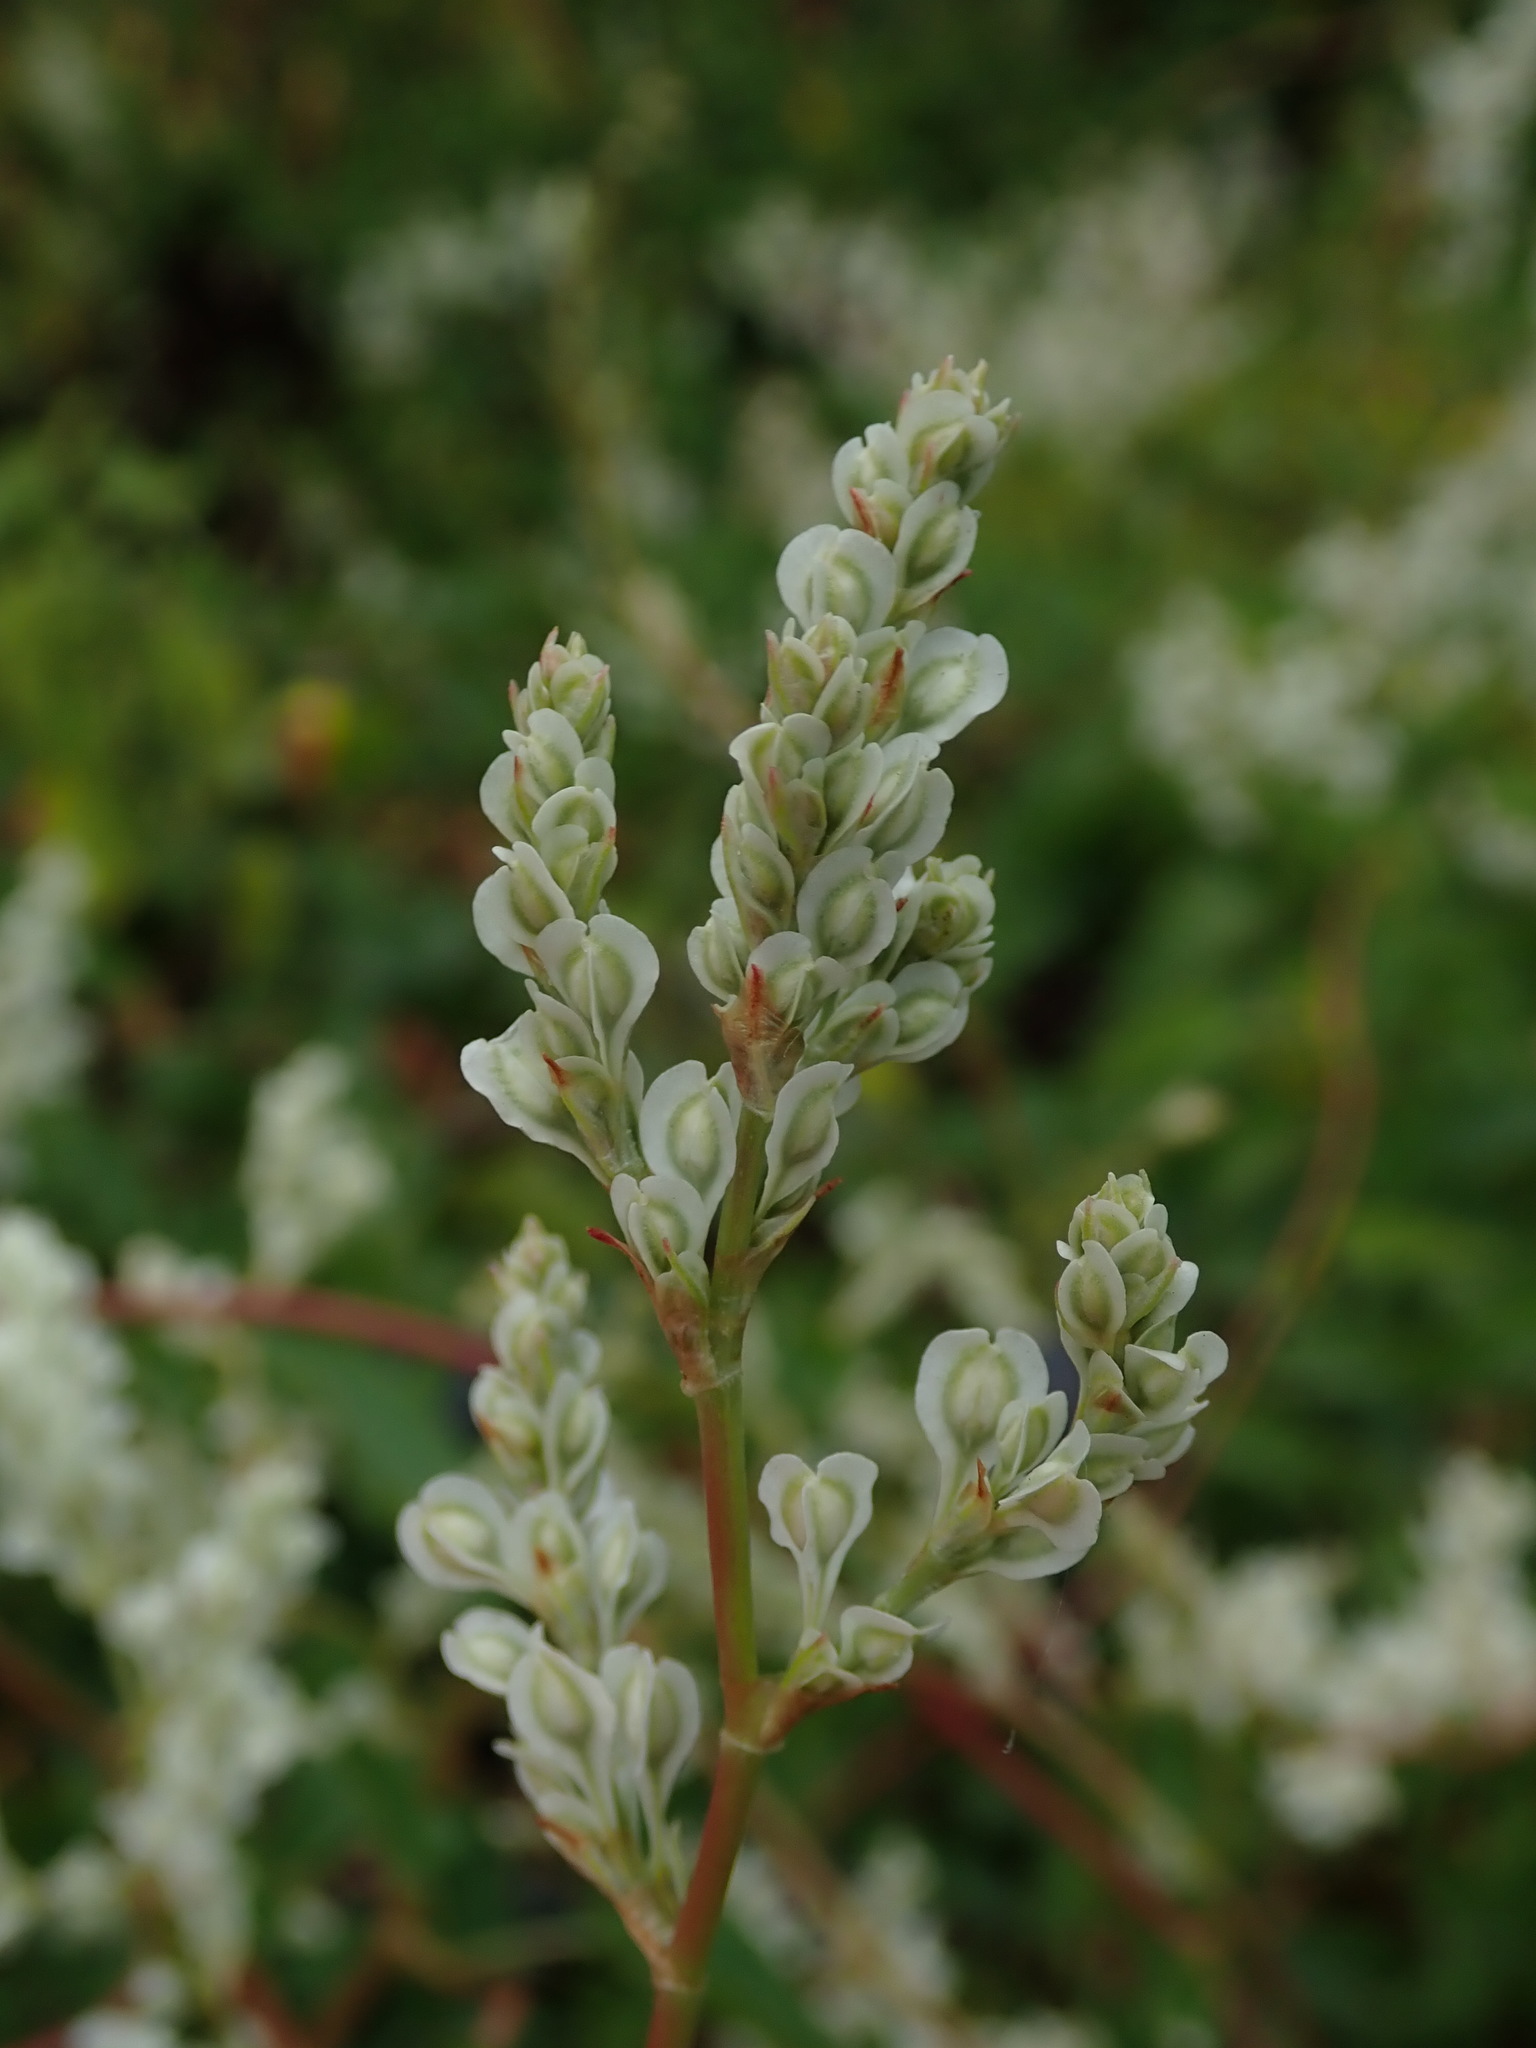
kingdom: Plantae
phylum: Tracheophyta
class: Magnoliopsida
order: Caryophyllales
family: Polygonaceae
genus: Fallopia
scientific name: Fallopia baldschuanica
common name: Russian-vine
